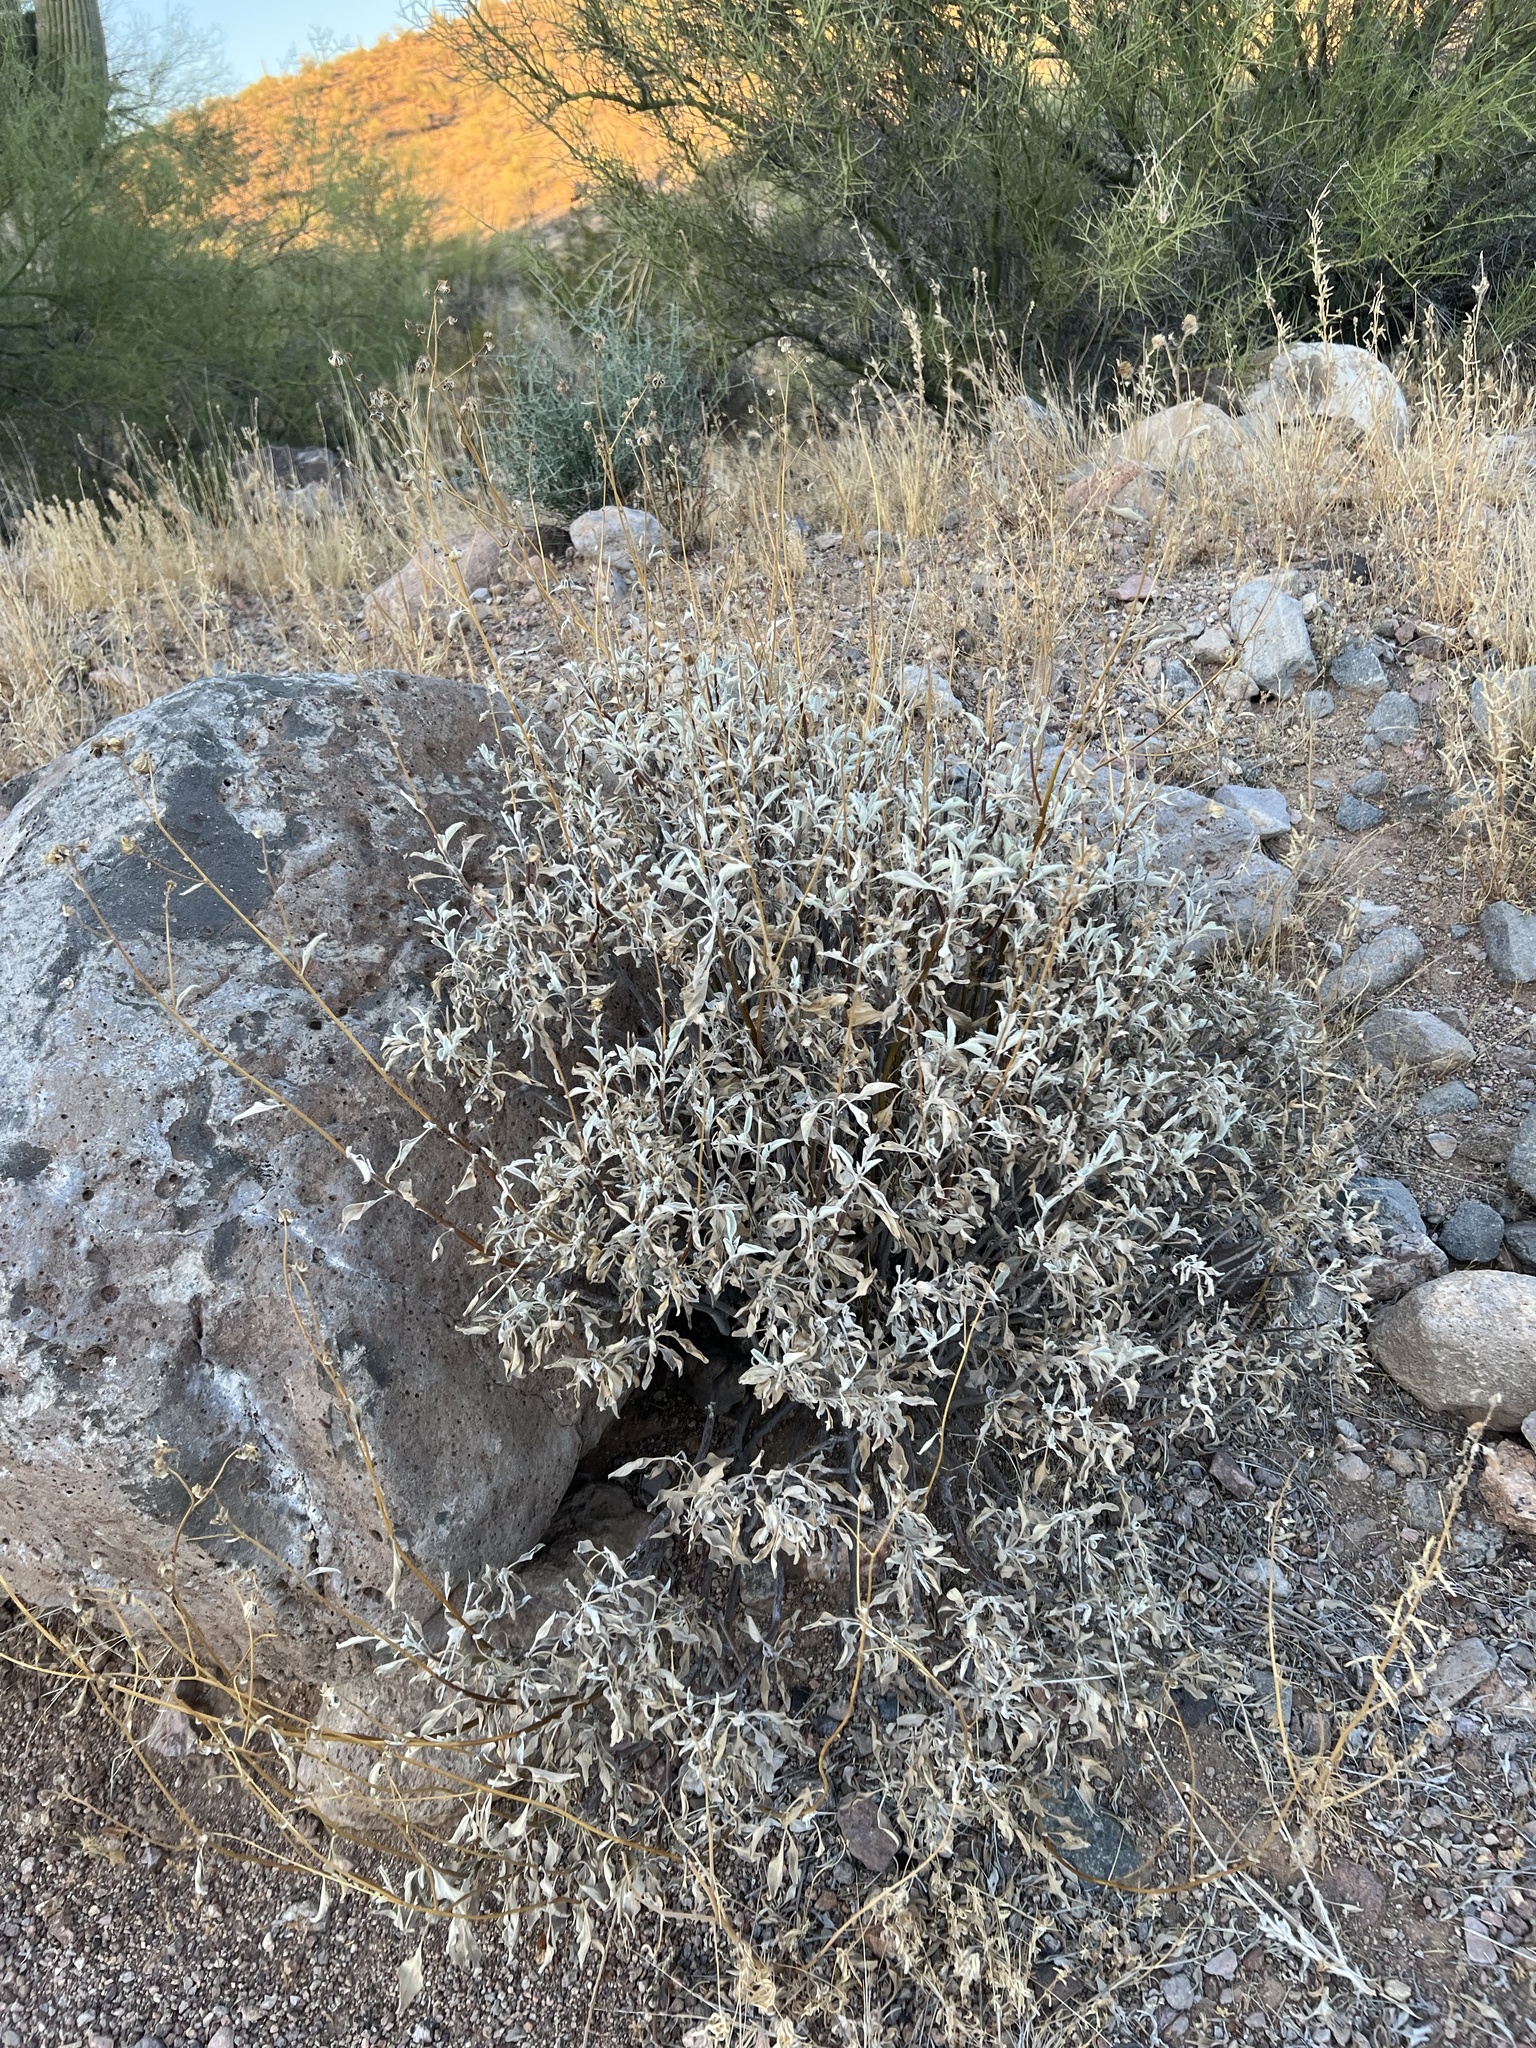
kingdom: Plantae
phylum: Tracheophyta
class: Magnoliopsida
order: Asterales
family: Asteraceae
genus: Encelia
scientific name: Encelia farinosa
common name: Brittlebush
